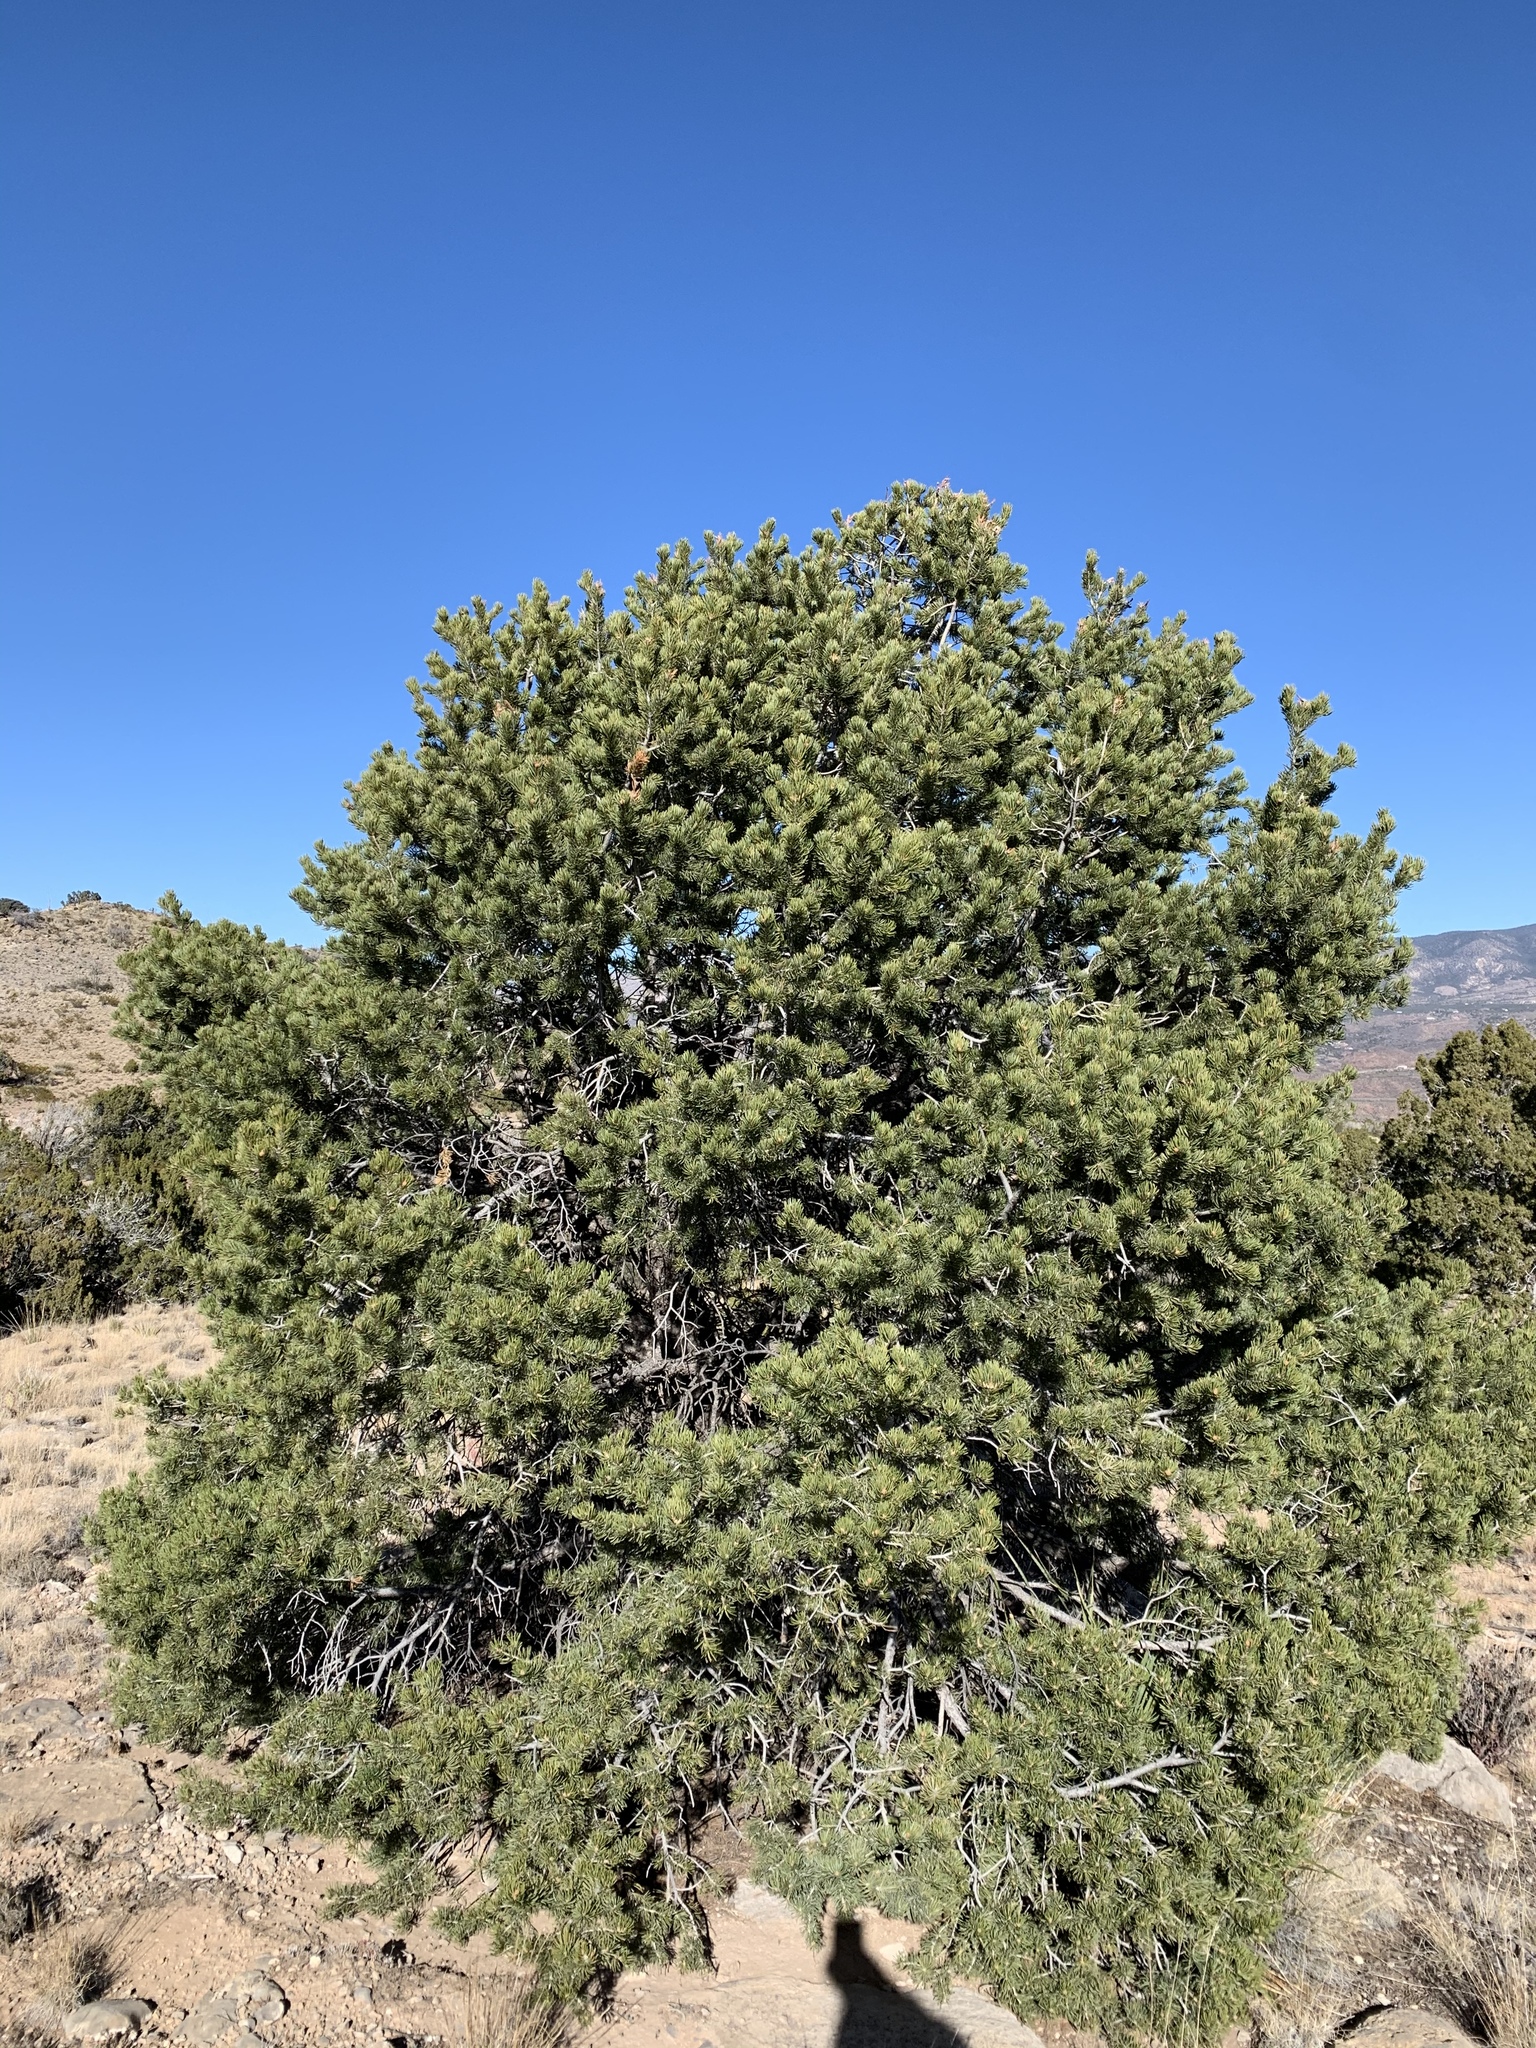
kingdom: Plantae
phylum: Tracheophyta
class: Pinopsida
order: Pinales
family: Pinaceae
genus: Pinus
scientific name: Pinus edulis
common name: Colorado pinyon
